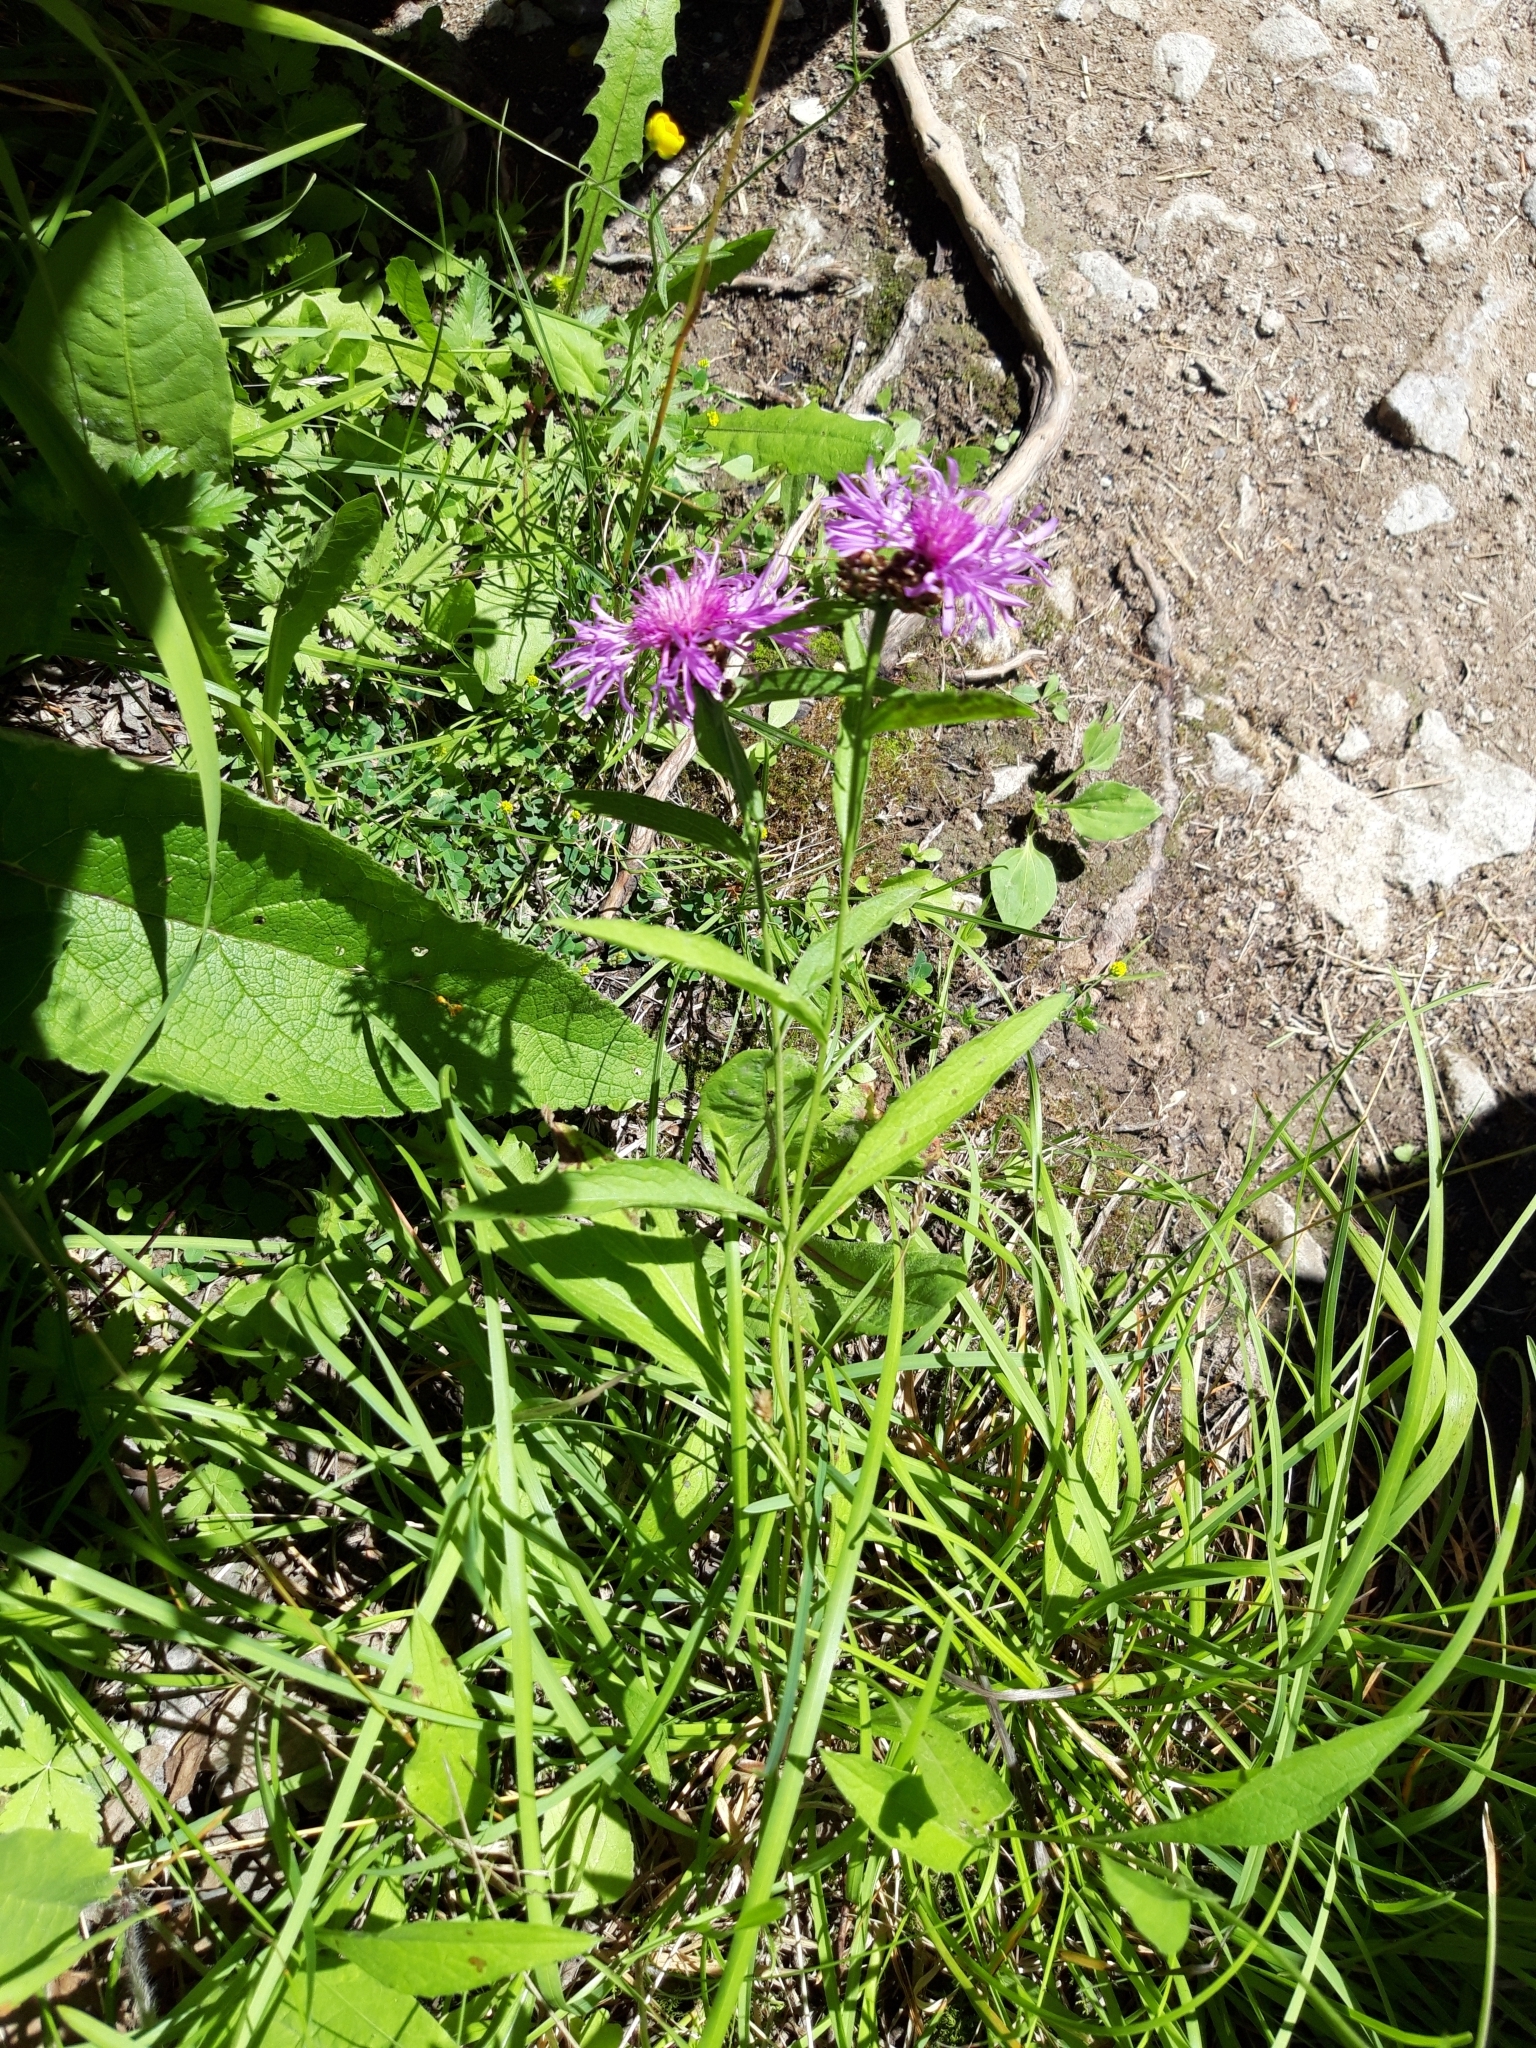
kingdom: Plantae
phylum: Tracheophyta
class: Magnoliopsida
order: Asterales
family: Asteraceae
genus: Centaurea
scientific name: Centaurea jacea
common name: Brown knapweed
